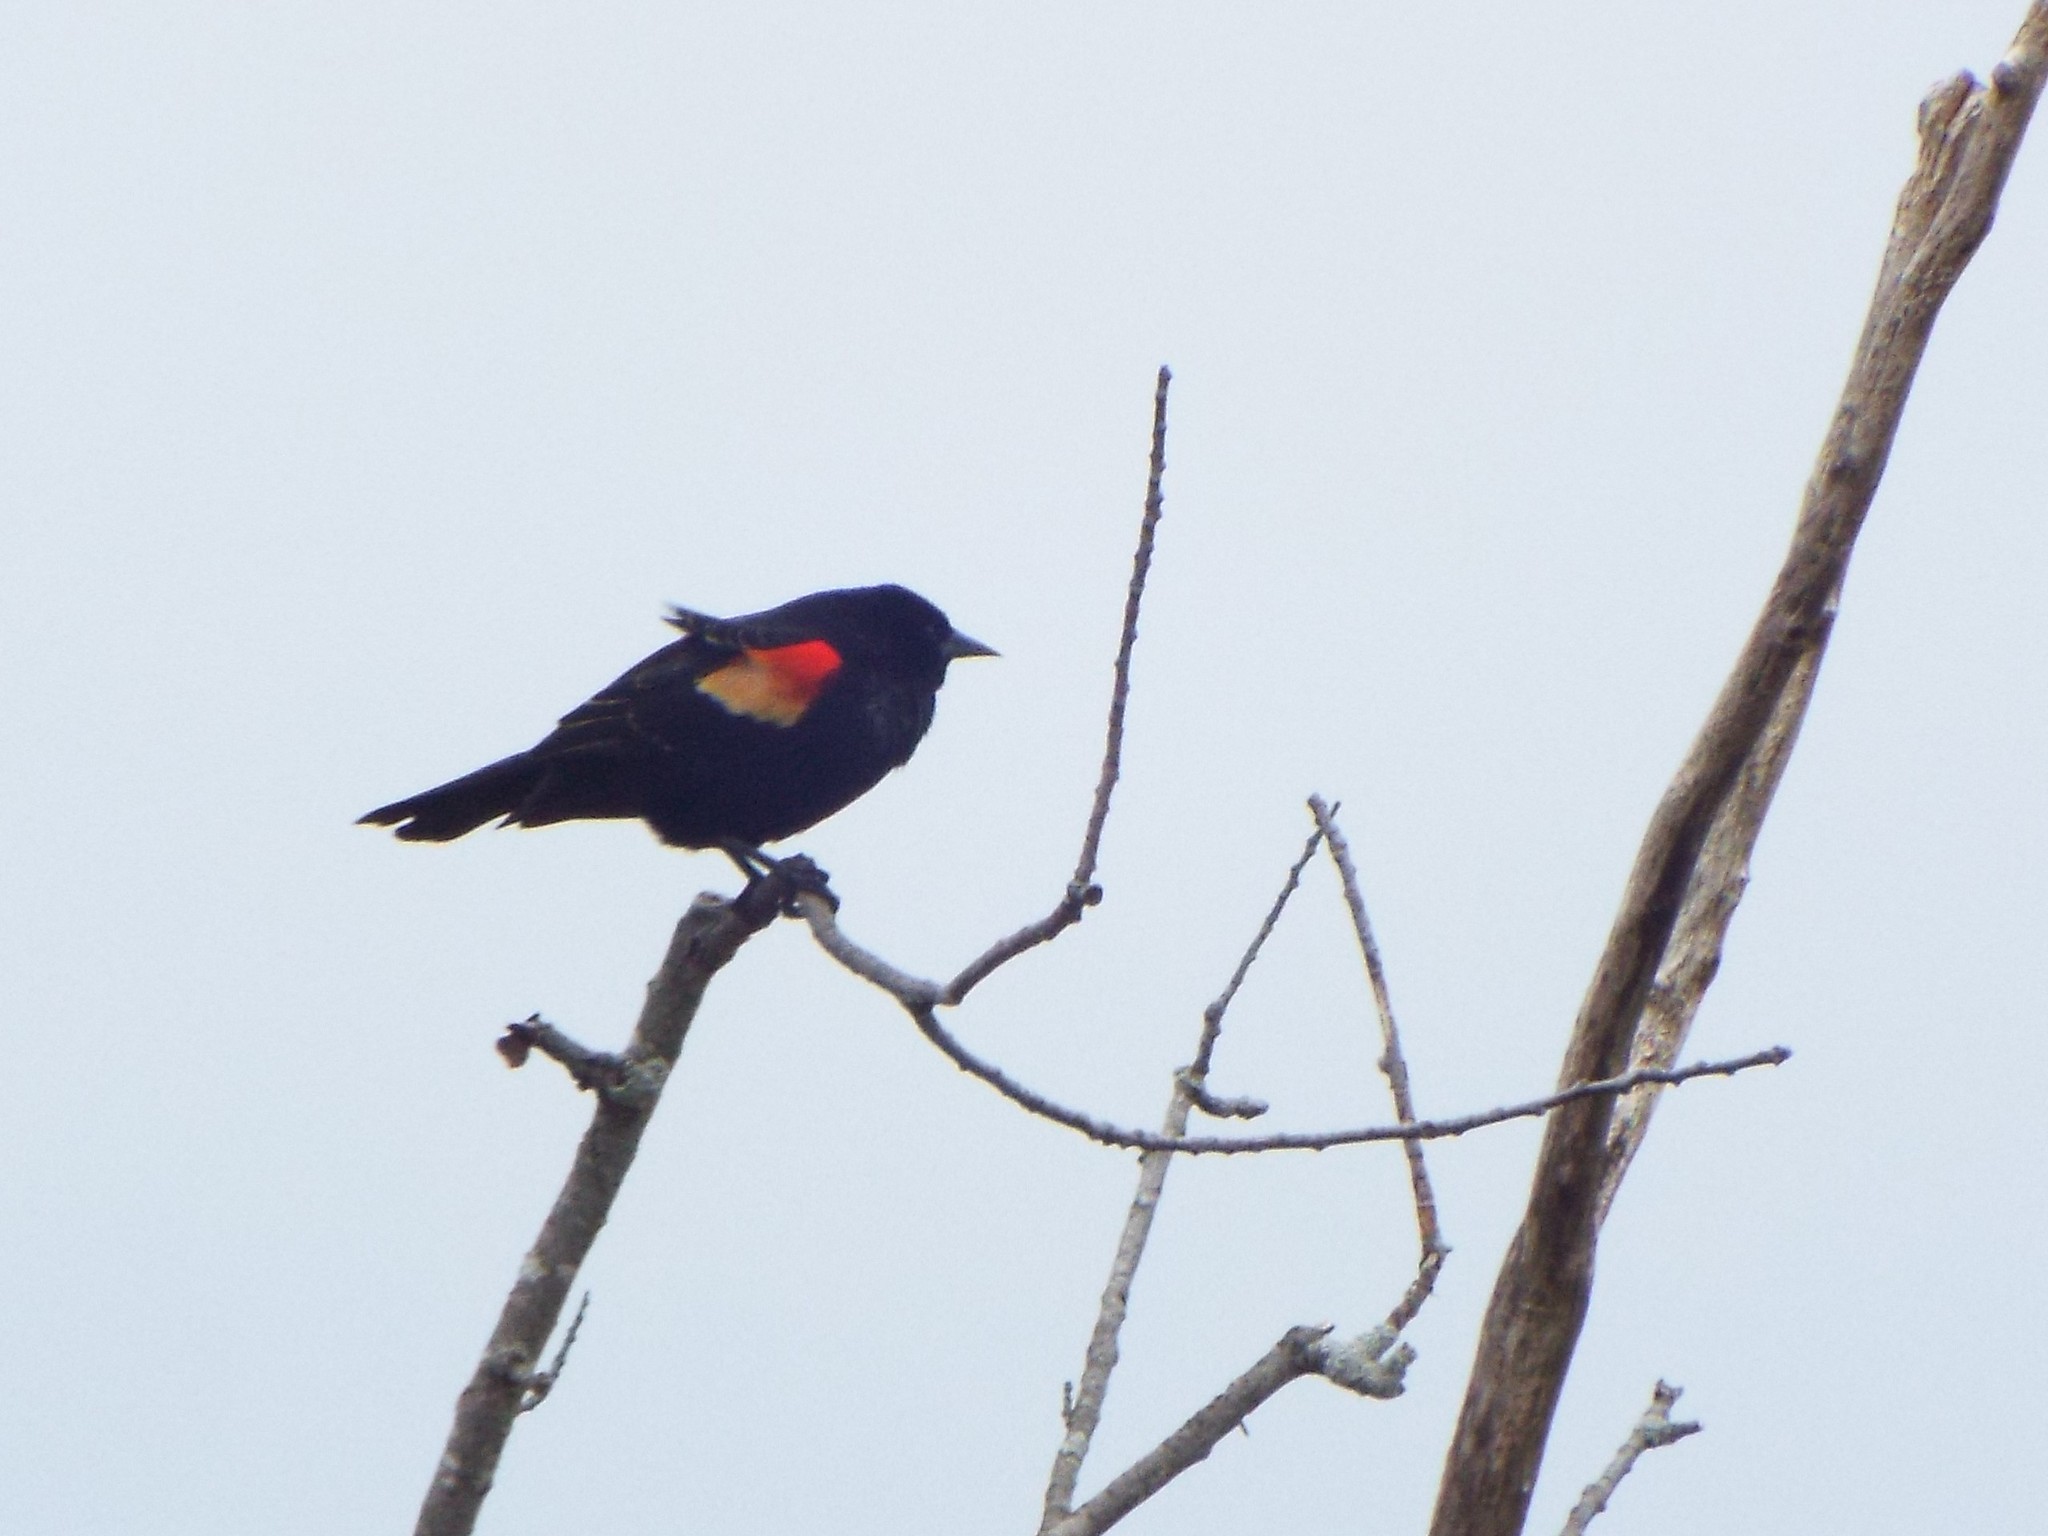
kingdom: Animalia
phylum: Chordata
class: Aves
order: Passeriformes
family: Icteridae
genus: Agelaius
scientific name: Agelaius phoeniceus
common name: Red-winged blackbird
